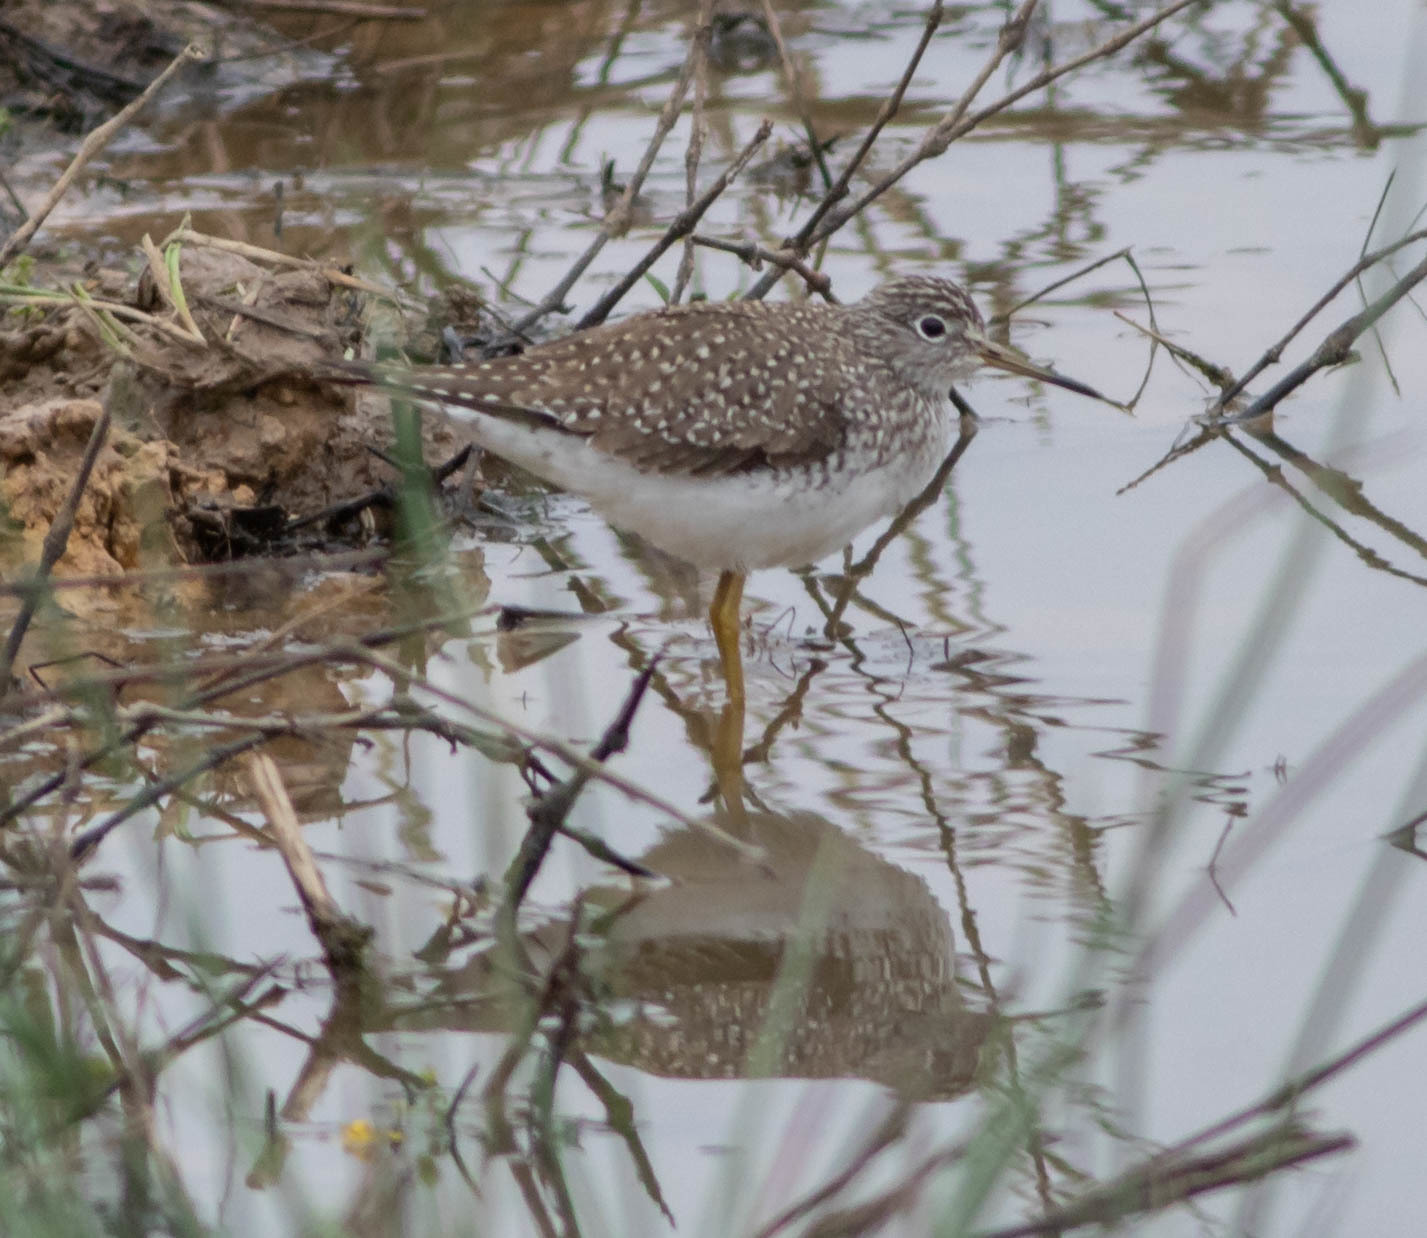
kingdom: Animalia
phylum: Chordata
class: Aves
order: Charadriiformes
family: Scolopacidae
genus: Tringa
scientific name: Tringa solitaria
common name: Solitary sandpiper
